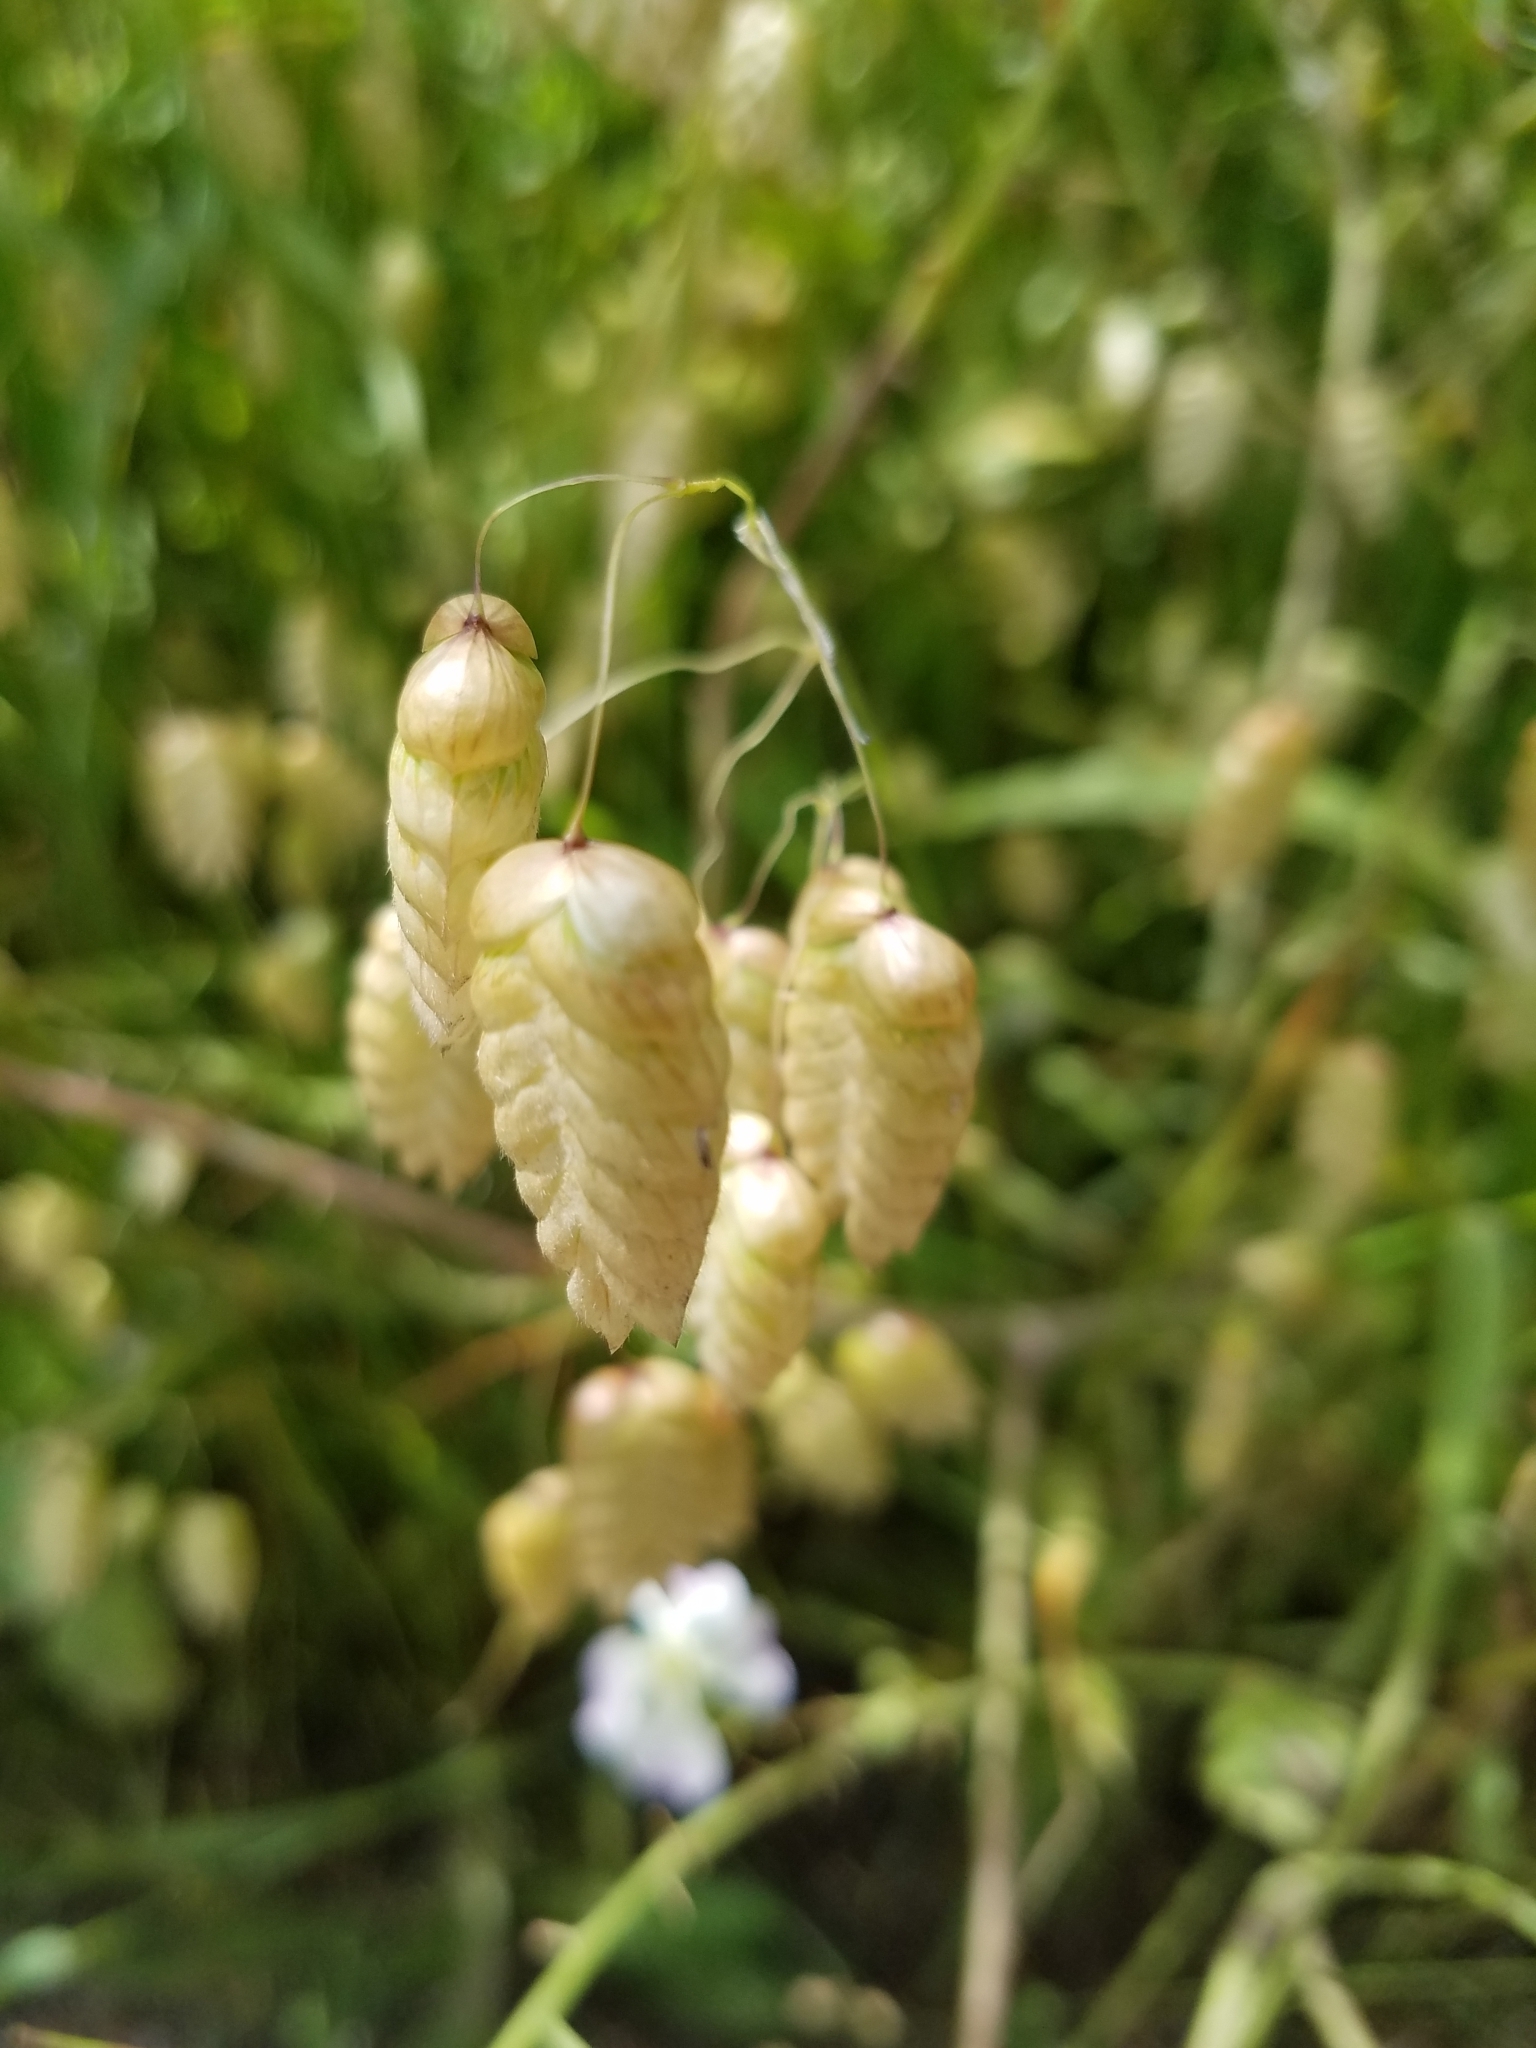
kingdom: Plantae
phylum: Tracheophyta
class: Liliopsida
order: Poales
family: Poaceae
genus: Briza
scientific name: Briza maxima
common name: Big quakinggrass
